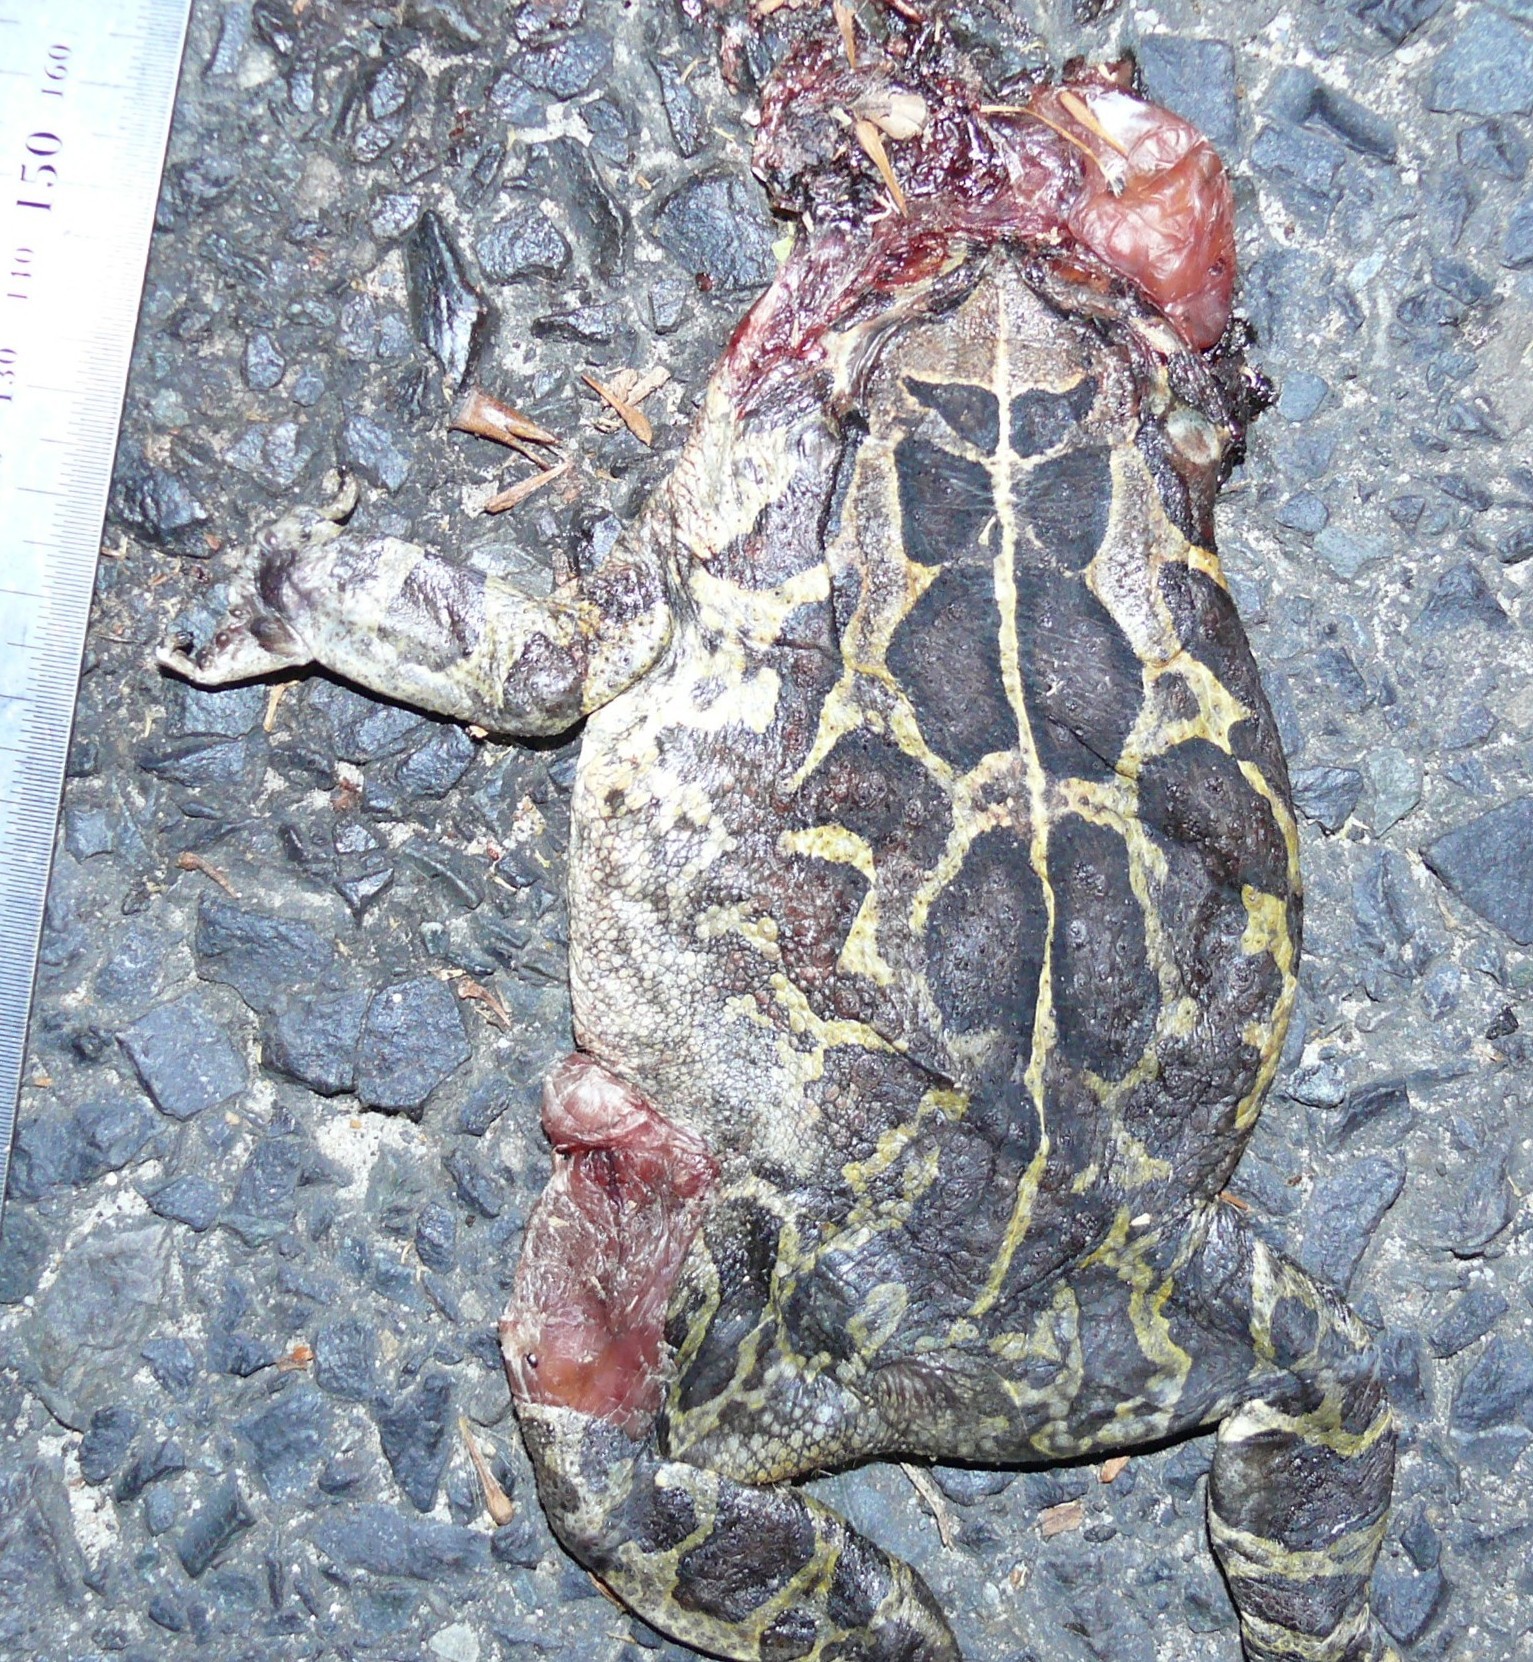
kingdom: Animalia
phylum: Chordata
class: Amphibia
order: Anura
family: Bufonidae
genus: Sclerophrys
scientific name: Sclerophrys pantherina
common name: Panther toad
